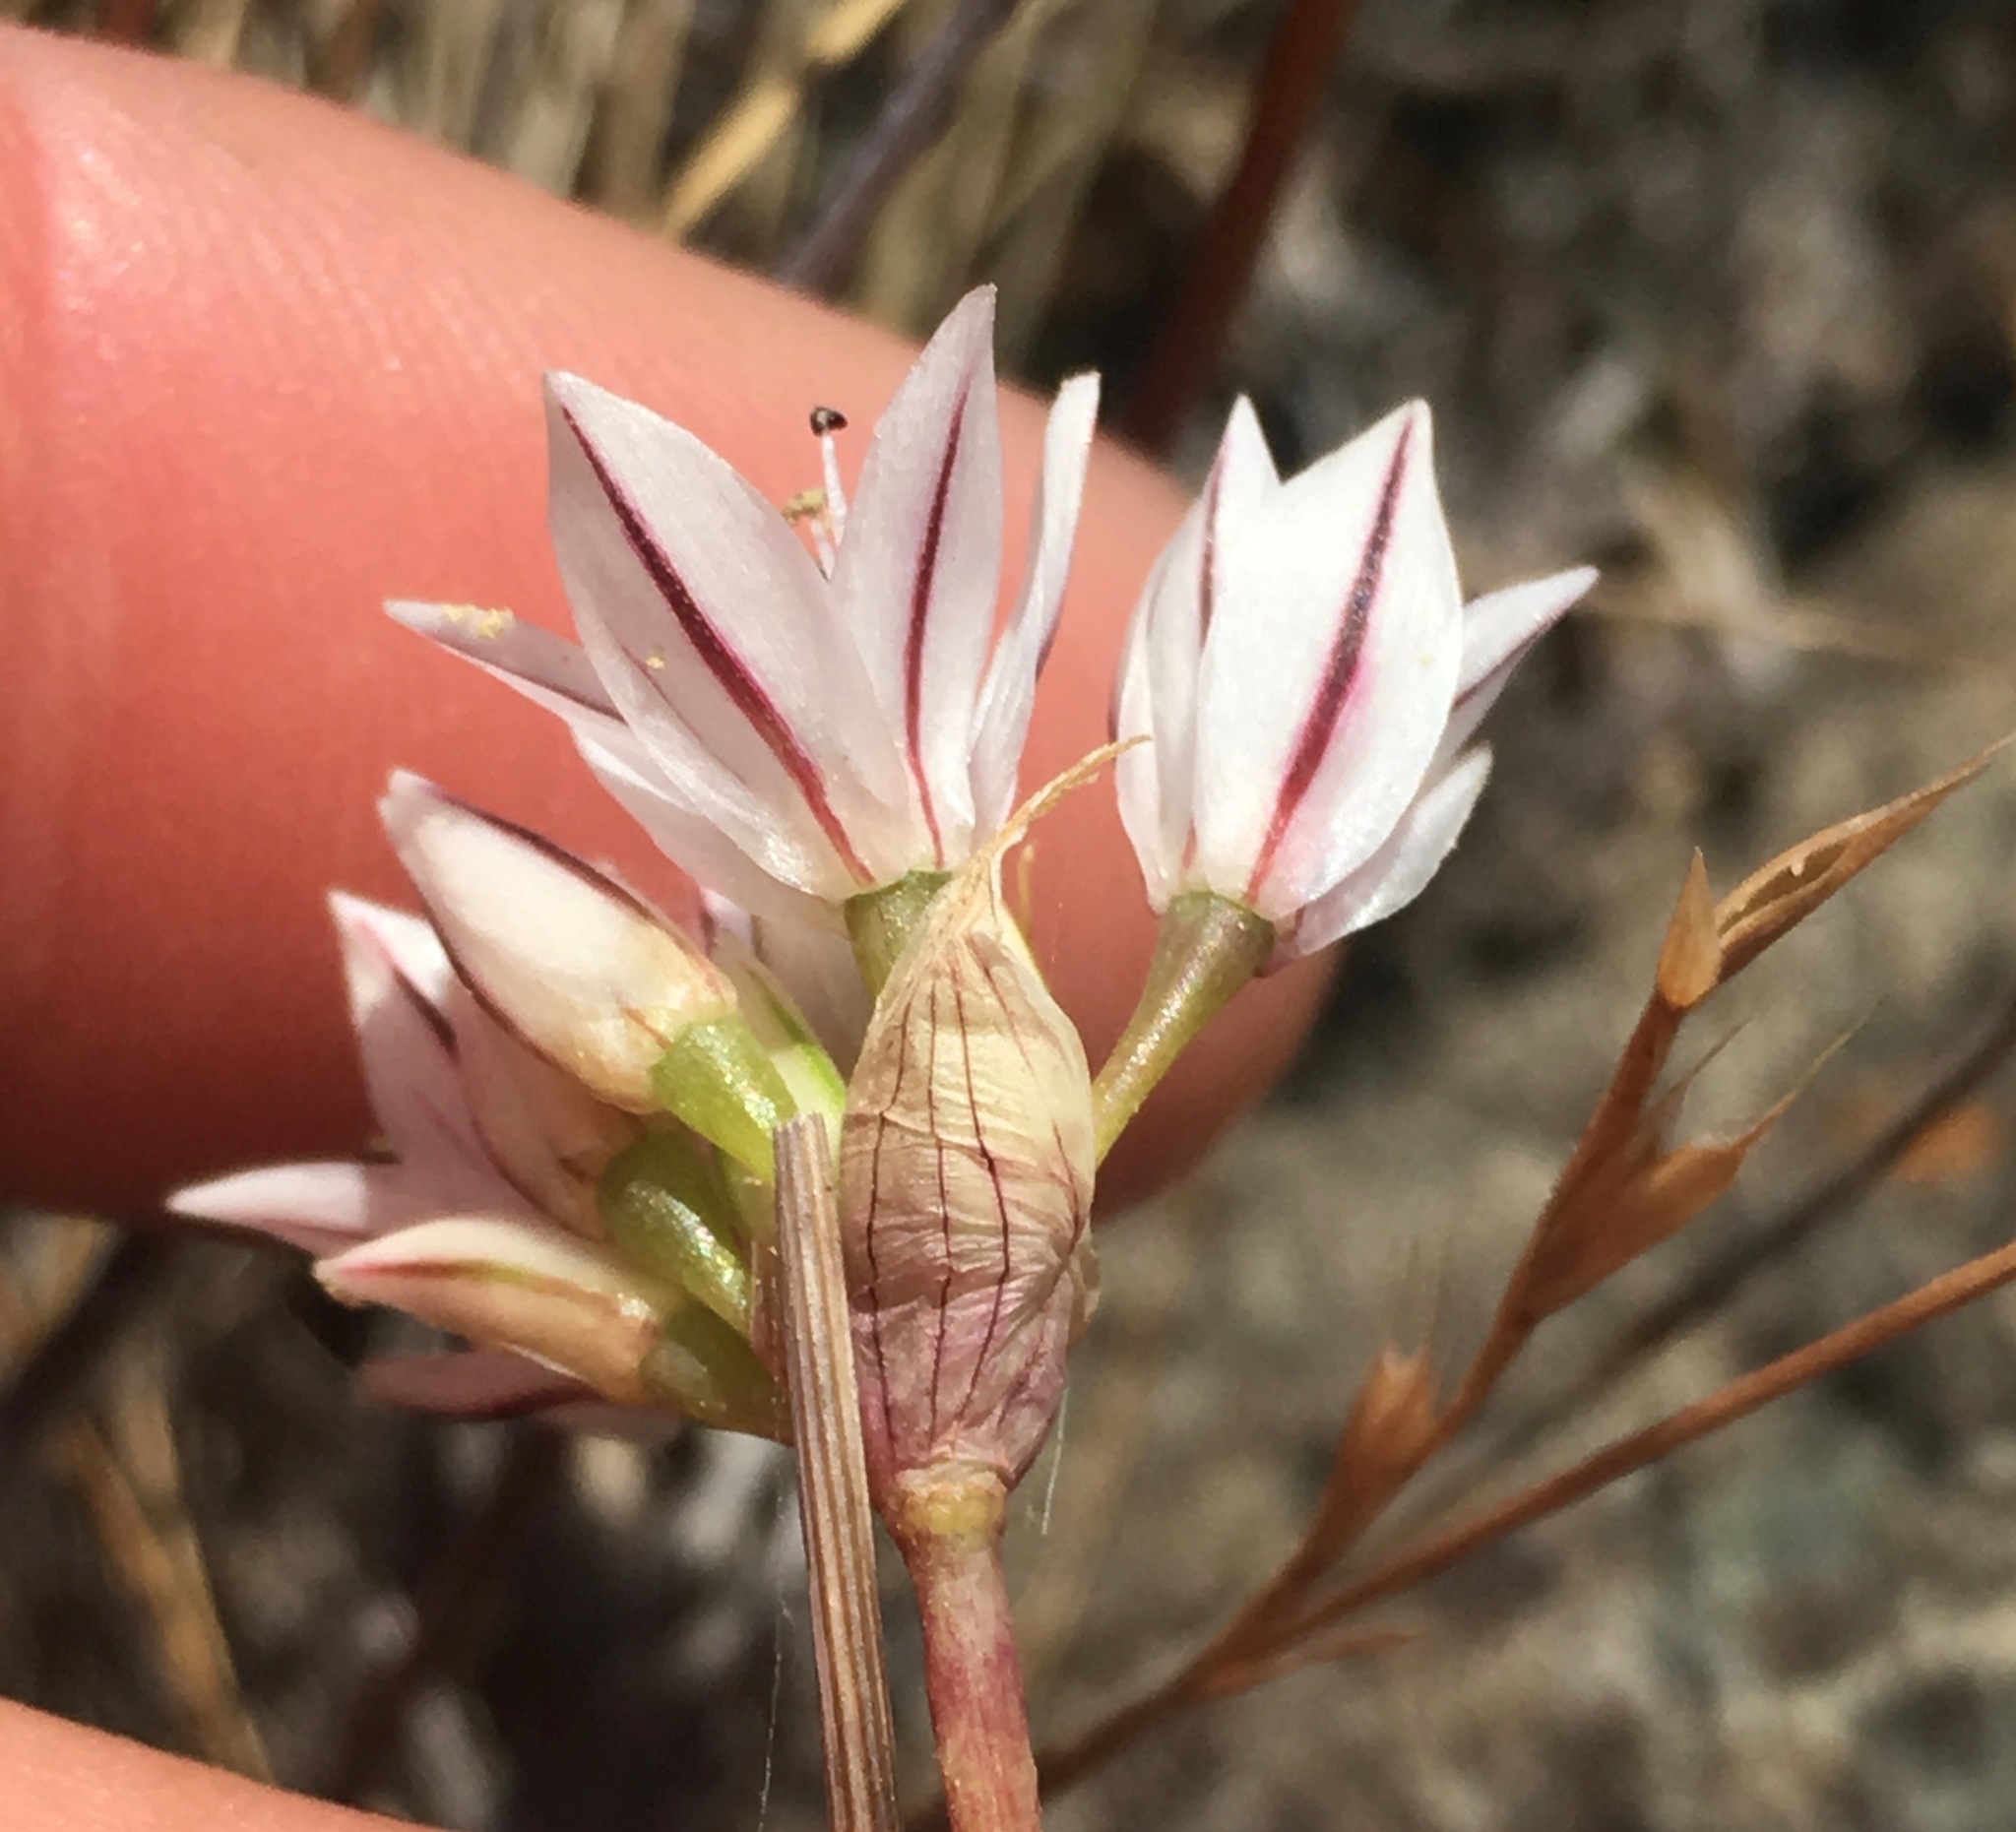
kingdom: Plantae
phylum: Tracheophyta
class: Liliopsida
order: Asparagales
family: Amaryllidaceae
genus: Allium
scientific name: Allium lacunosum
